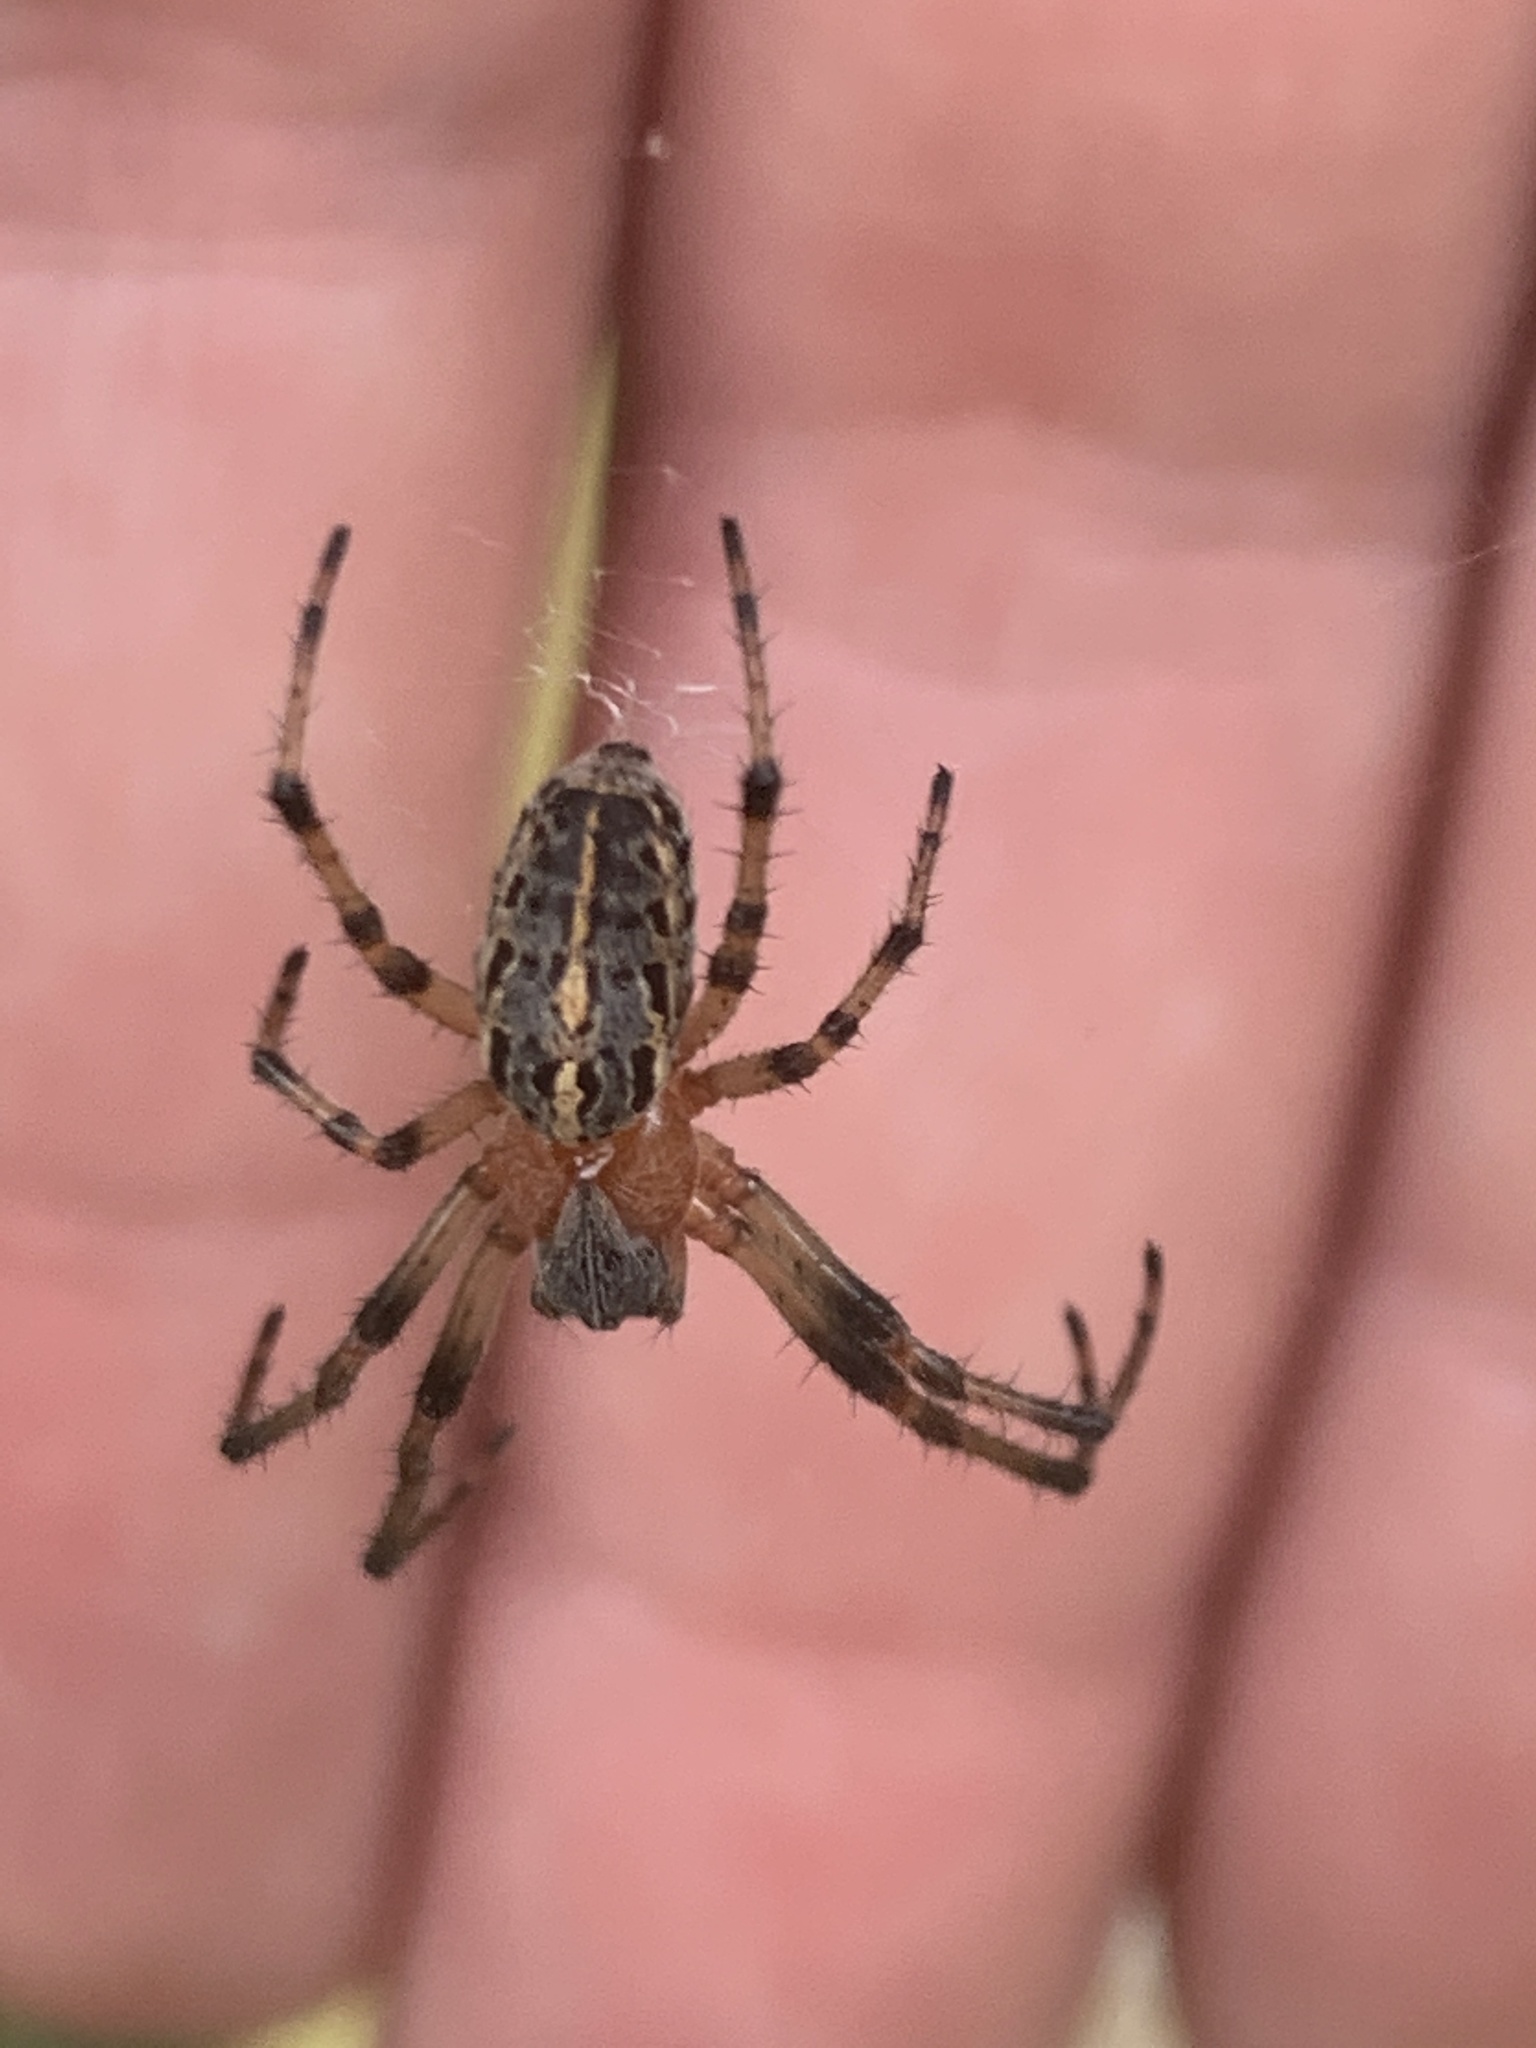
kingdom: Animalia
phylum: Arthropoda
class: Arachnida
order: Araneae
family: Araneidae
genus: Alpaida
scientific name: Alpaida veniliae
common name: Orb weavers
